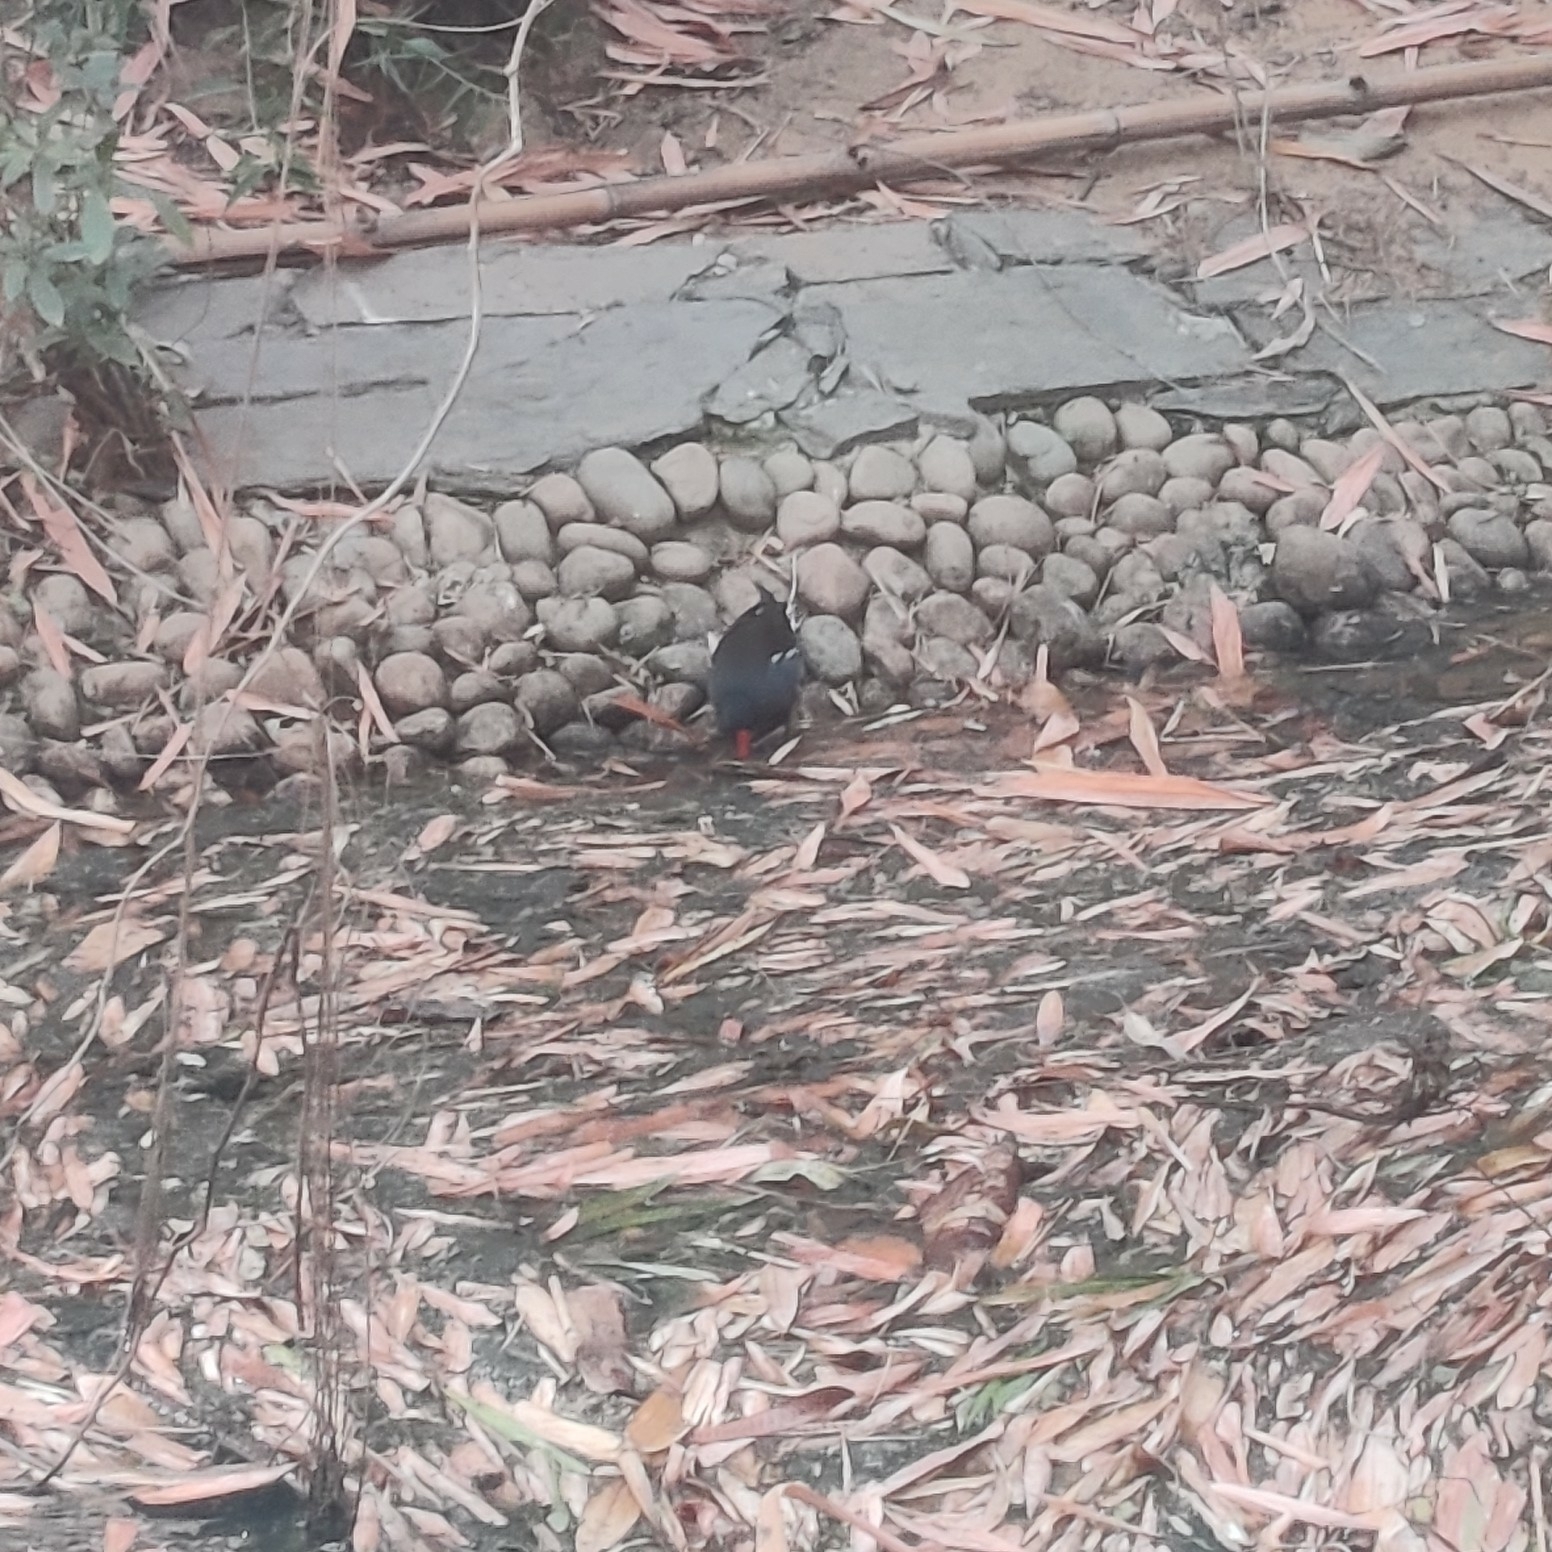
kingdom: Animalia
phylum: Chordata
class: Aves
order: Gruiformes
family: Rallidae
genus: Gallinula
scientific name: Gallinula chloropus
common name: Common moorhen
